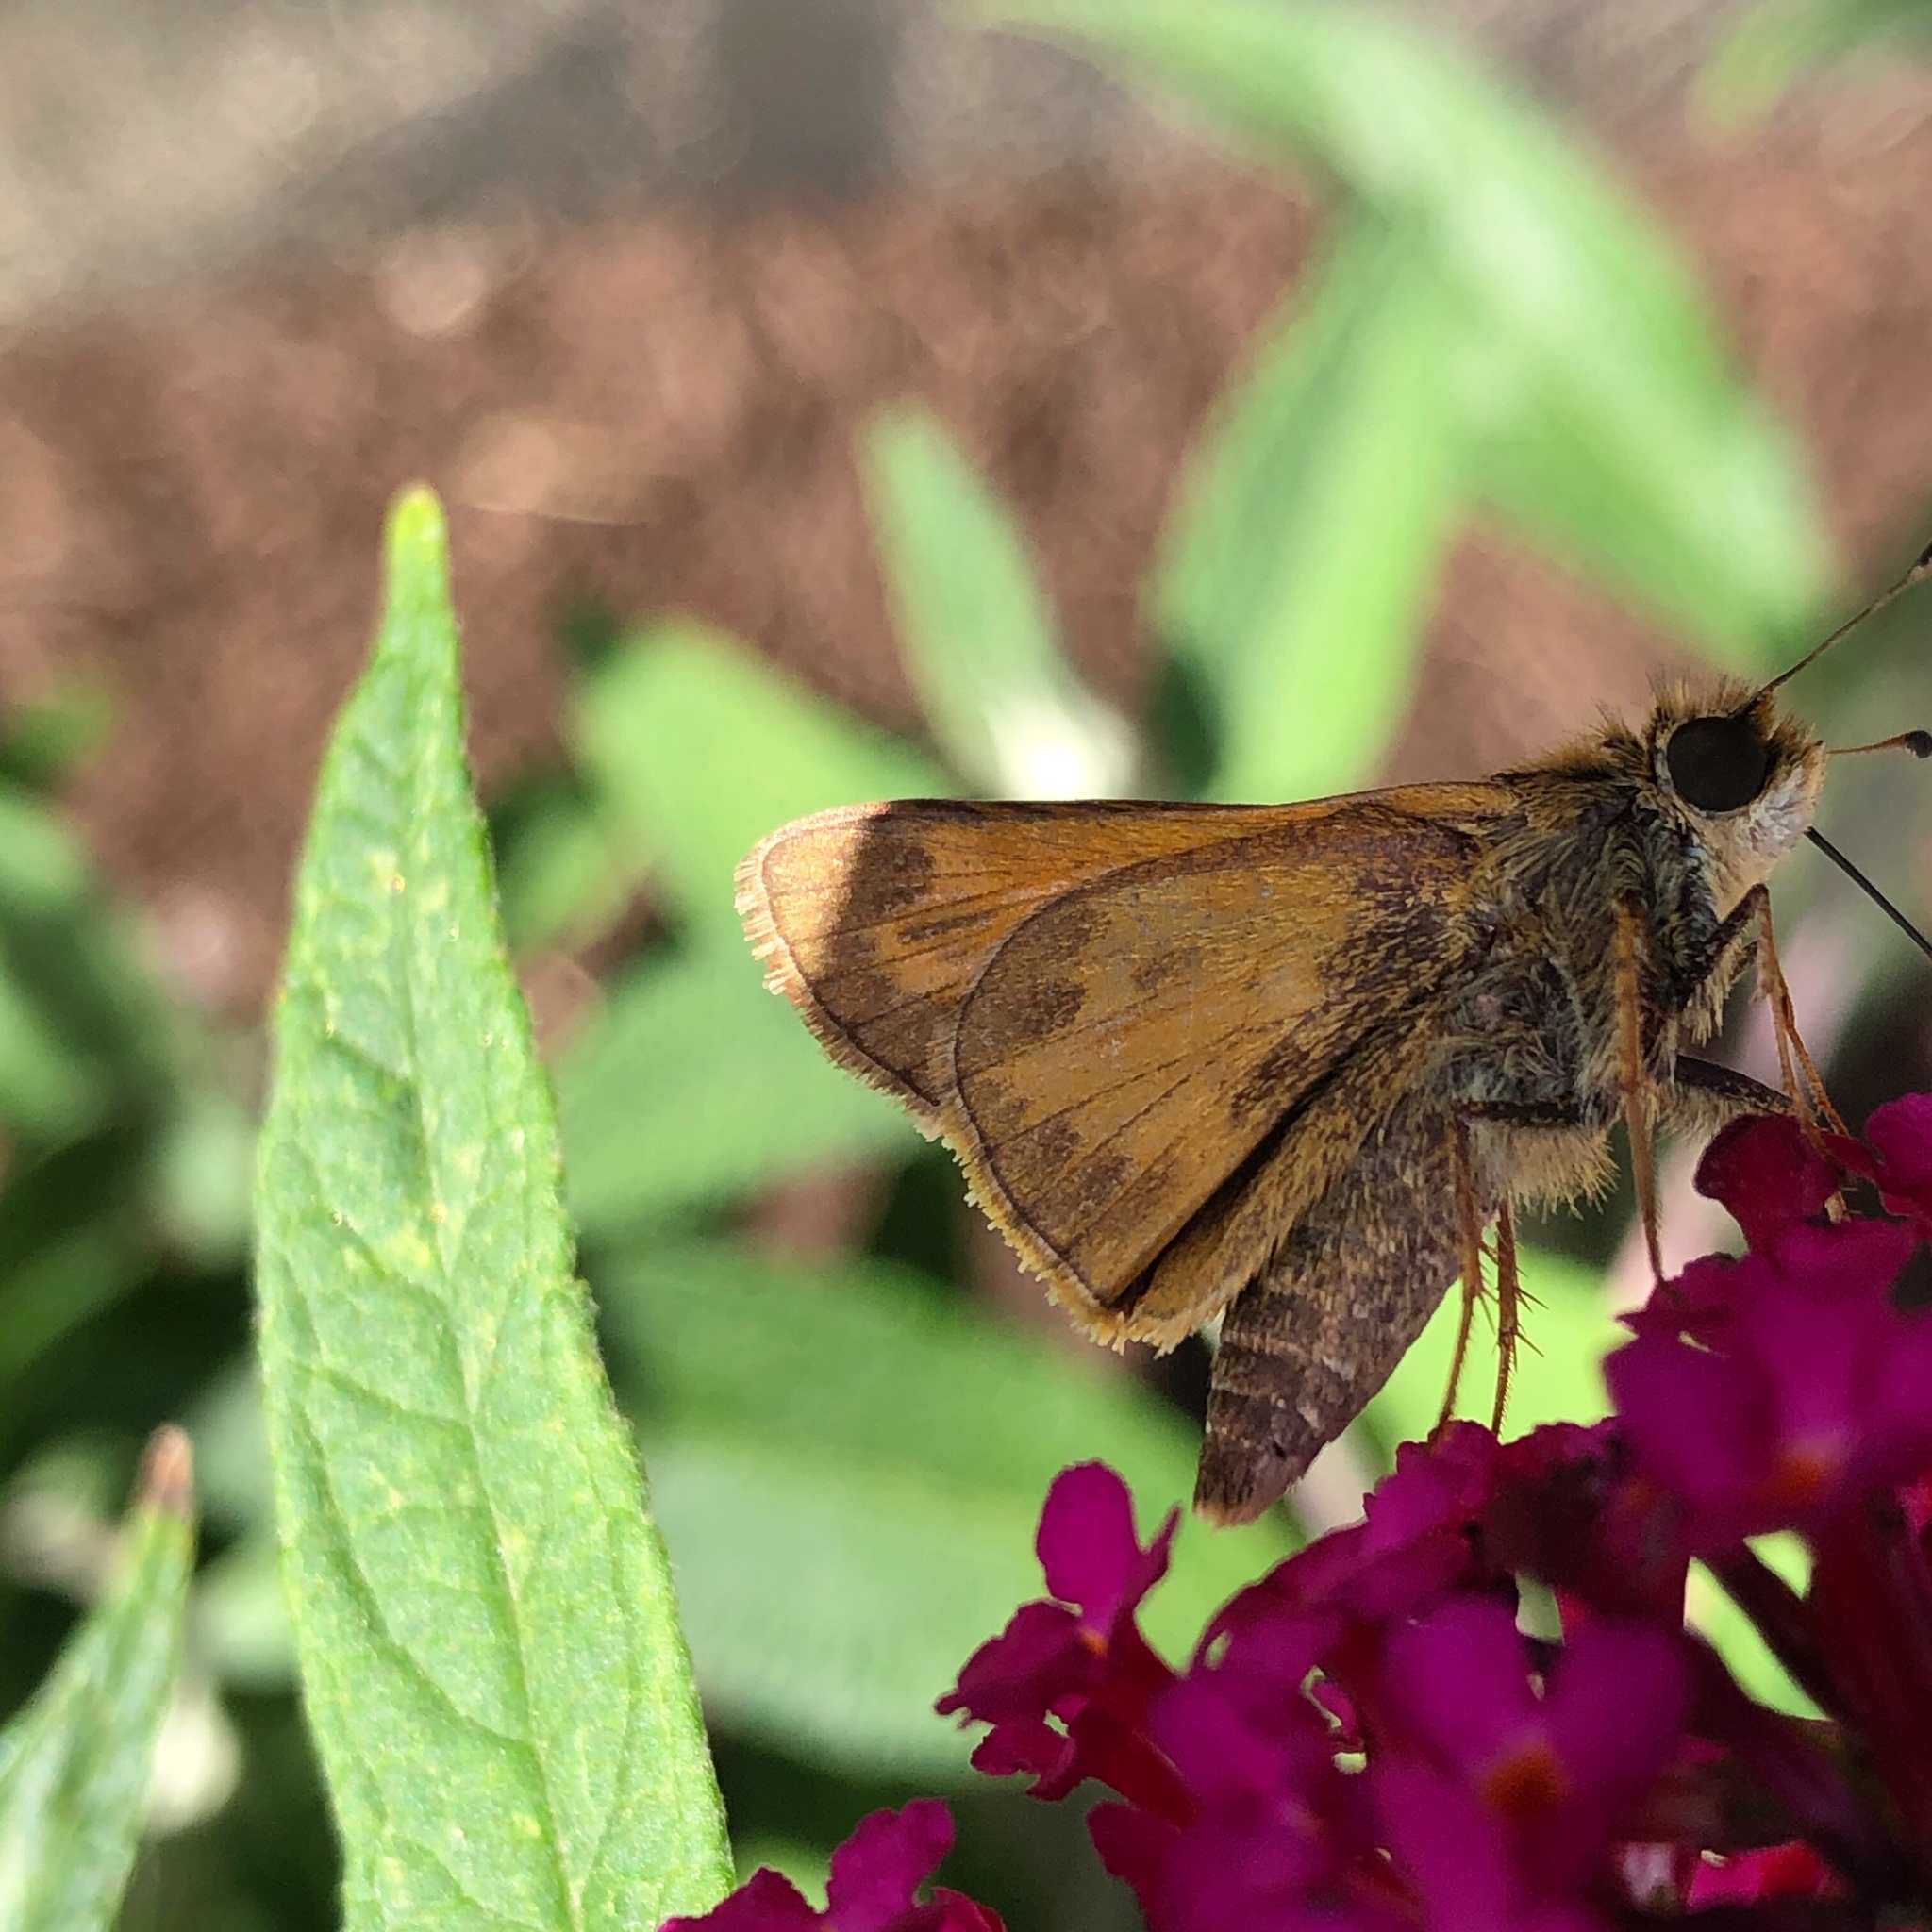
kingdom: Animalia
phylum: Arthropoda
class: Insecta
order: Lepidoptera
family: Hesperiidae
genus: Atalopedes
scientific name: Atalopedes
